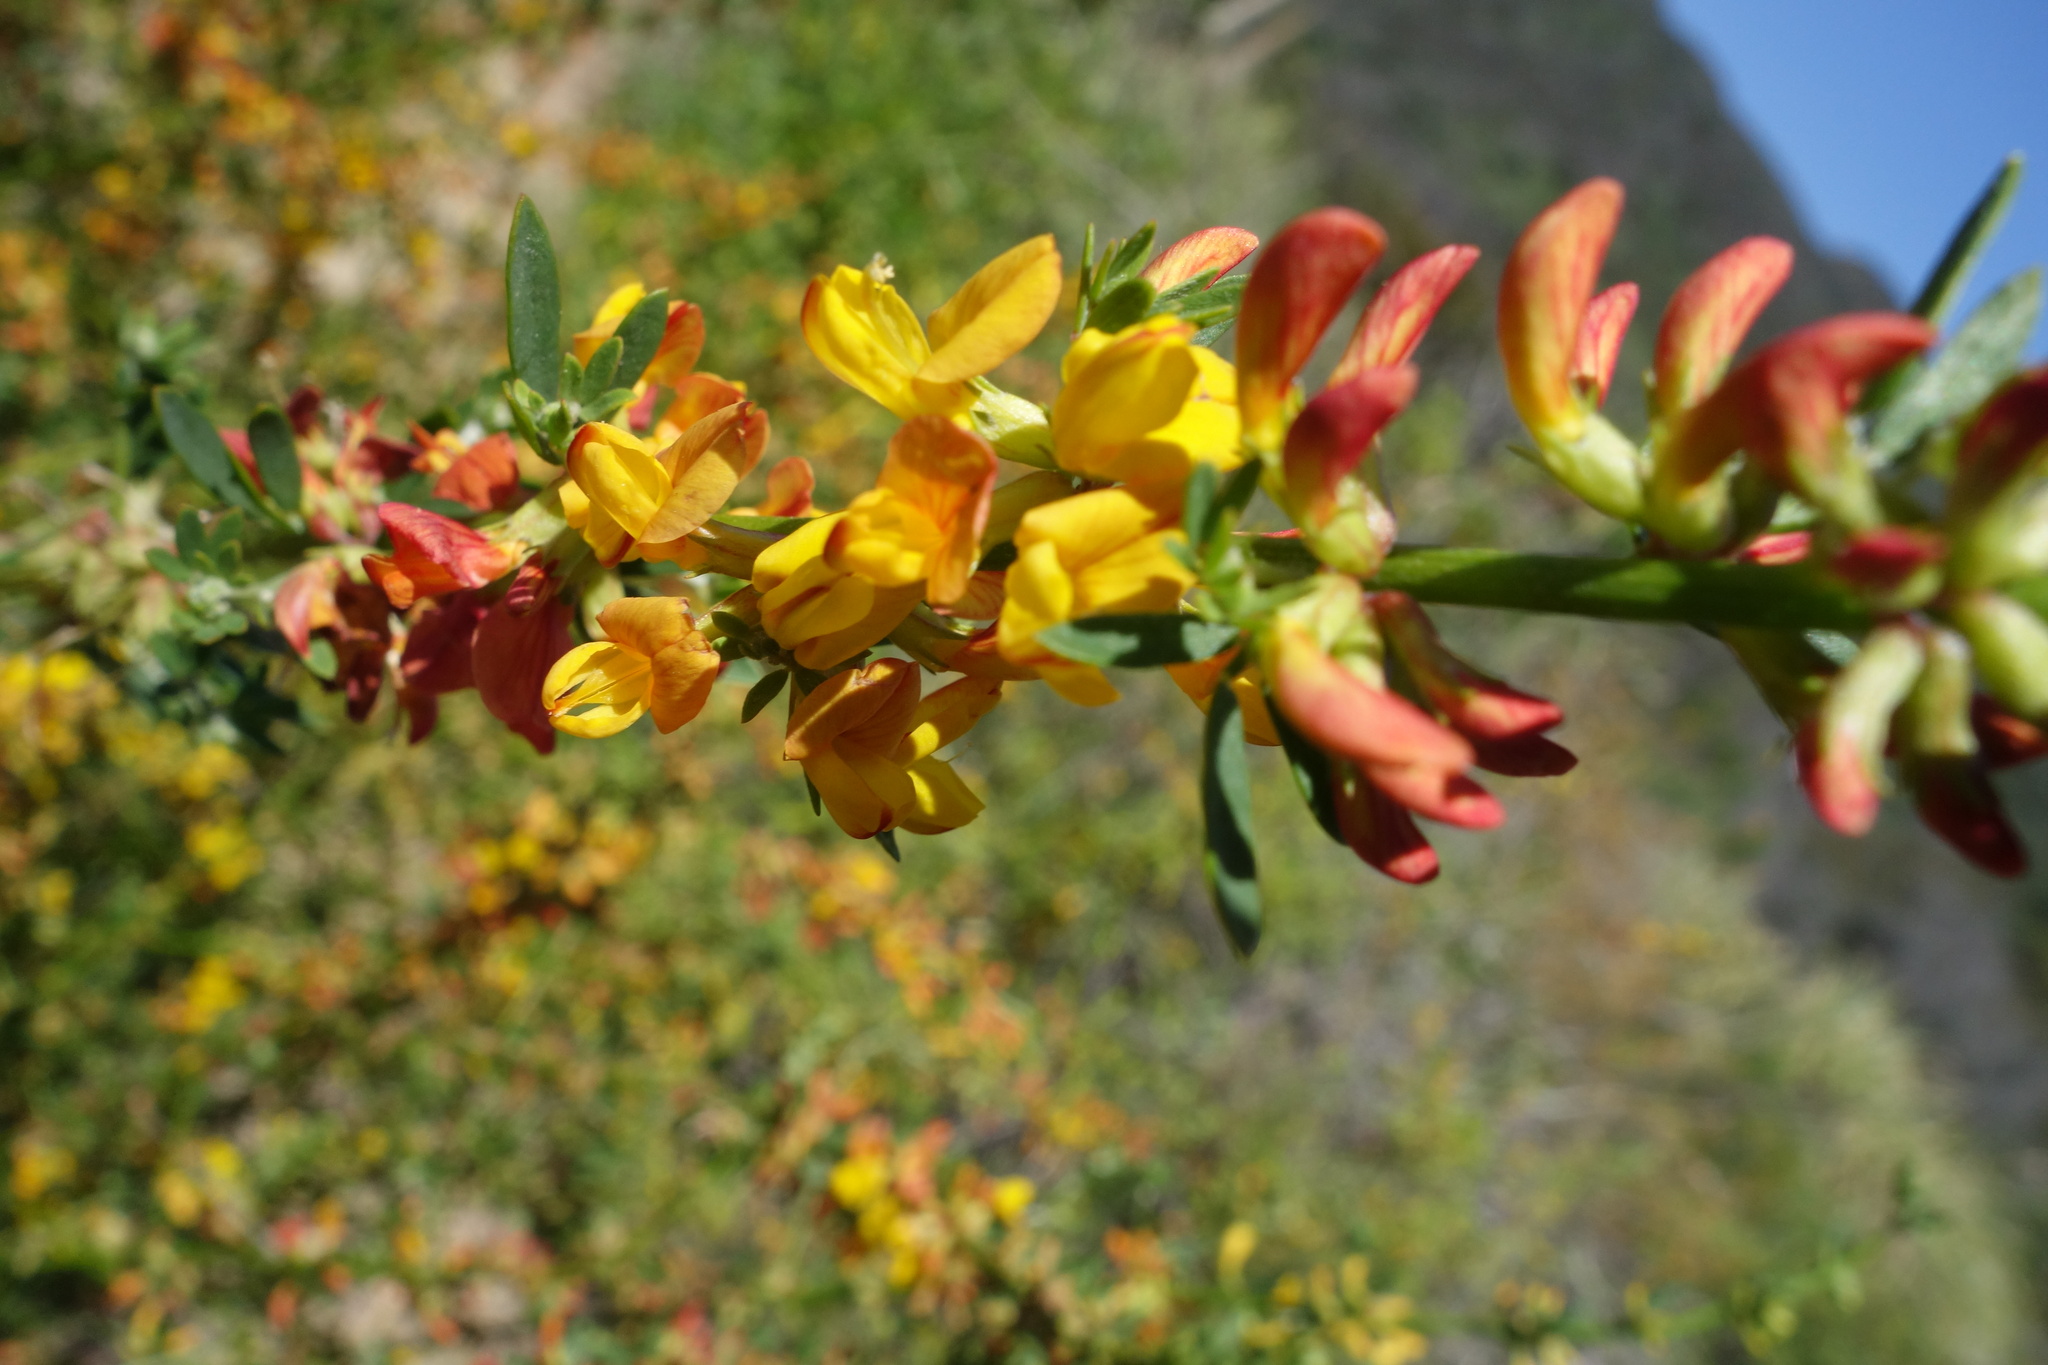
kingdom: Plantae
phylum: Tracheophyta
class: Magnoliopsida
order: Fabales
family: Fabaceae
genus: Acmispon
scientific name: Acmispon glaber
